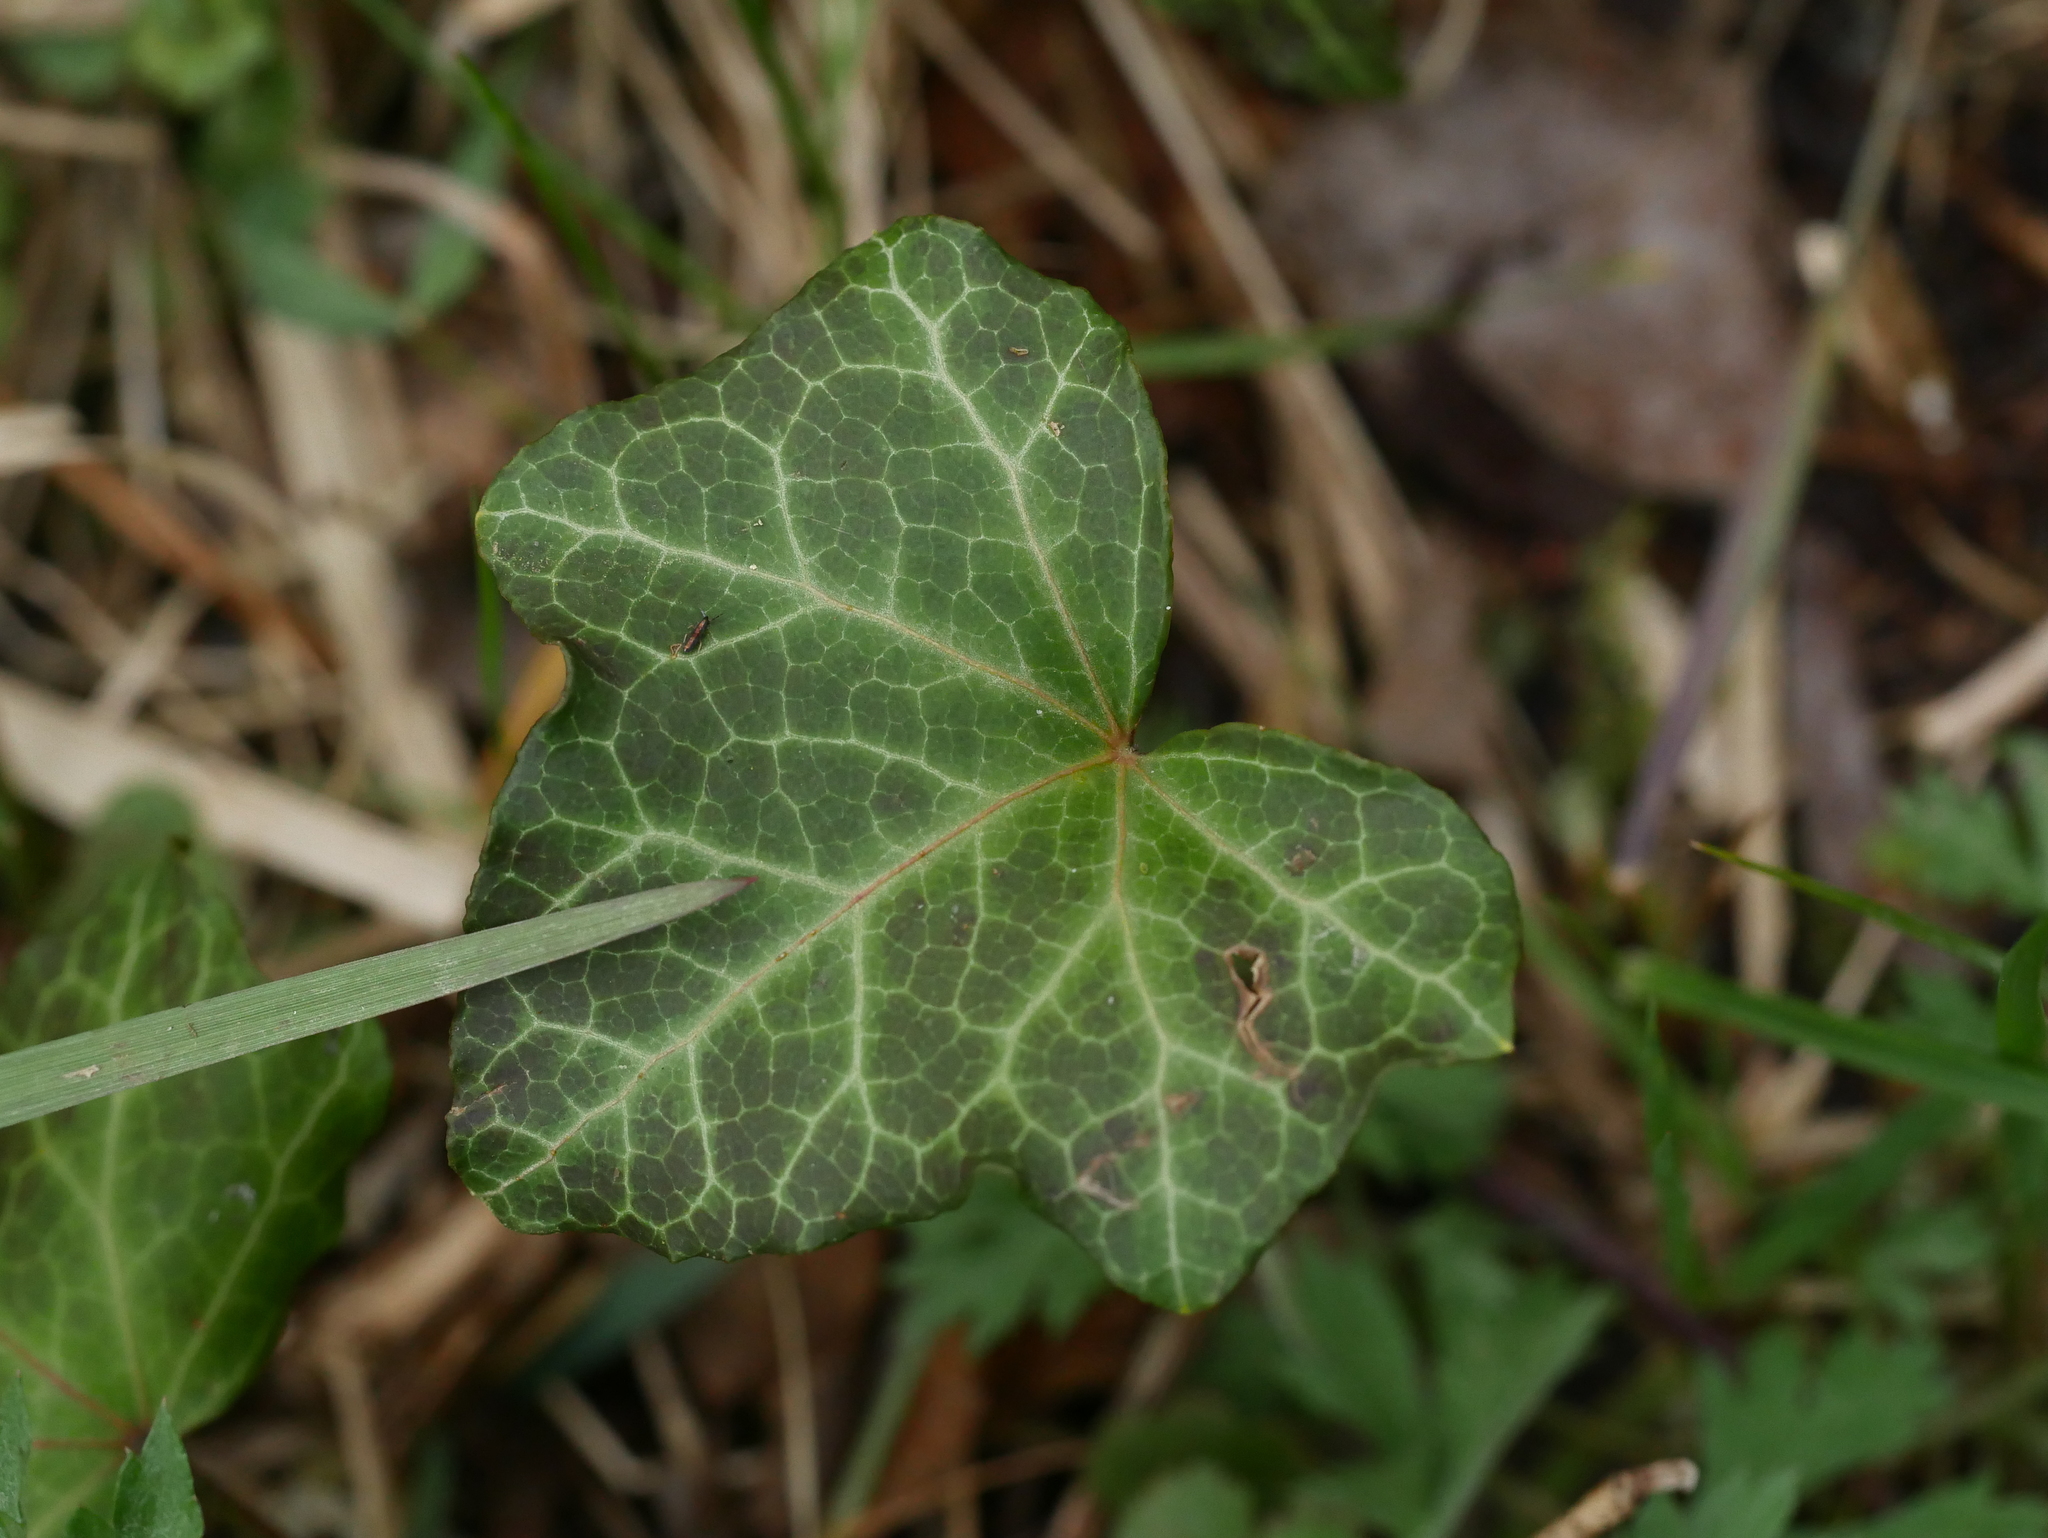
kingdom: Plantae
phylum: Tracheophyta
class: Magnoliopsida
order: Apiales
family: Araliaceae
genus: Hedera
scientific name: Hedera helix
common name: Ivy
